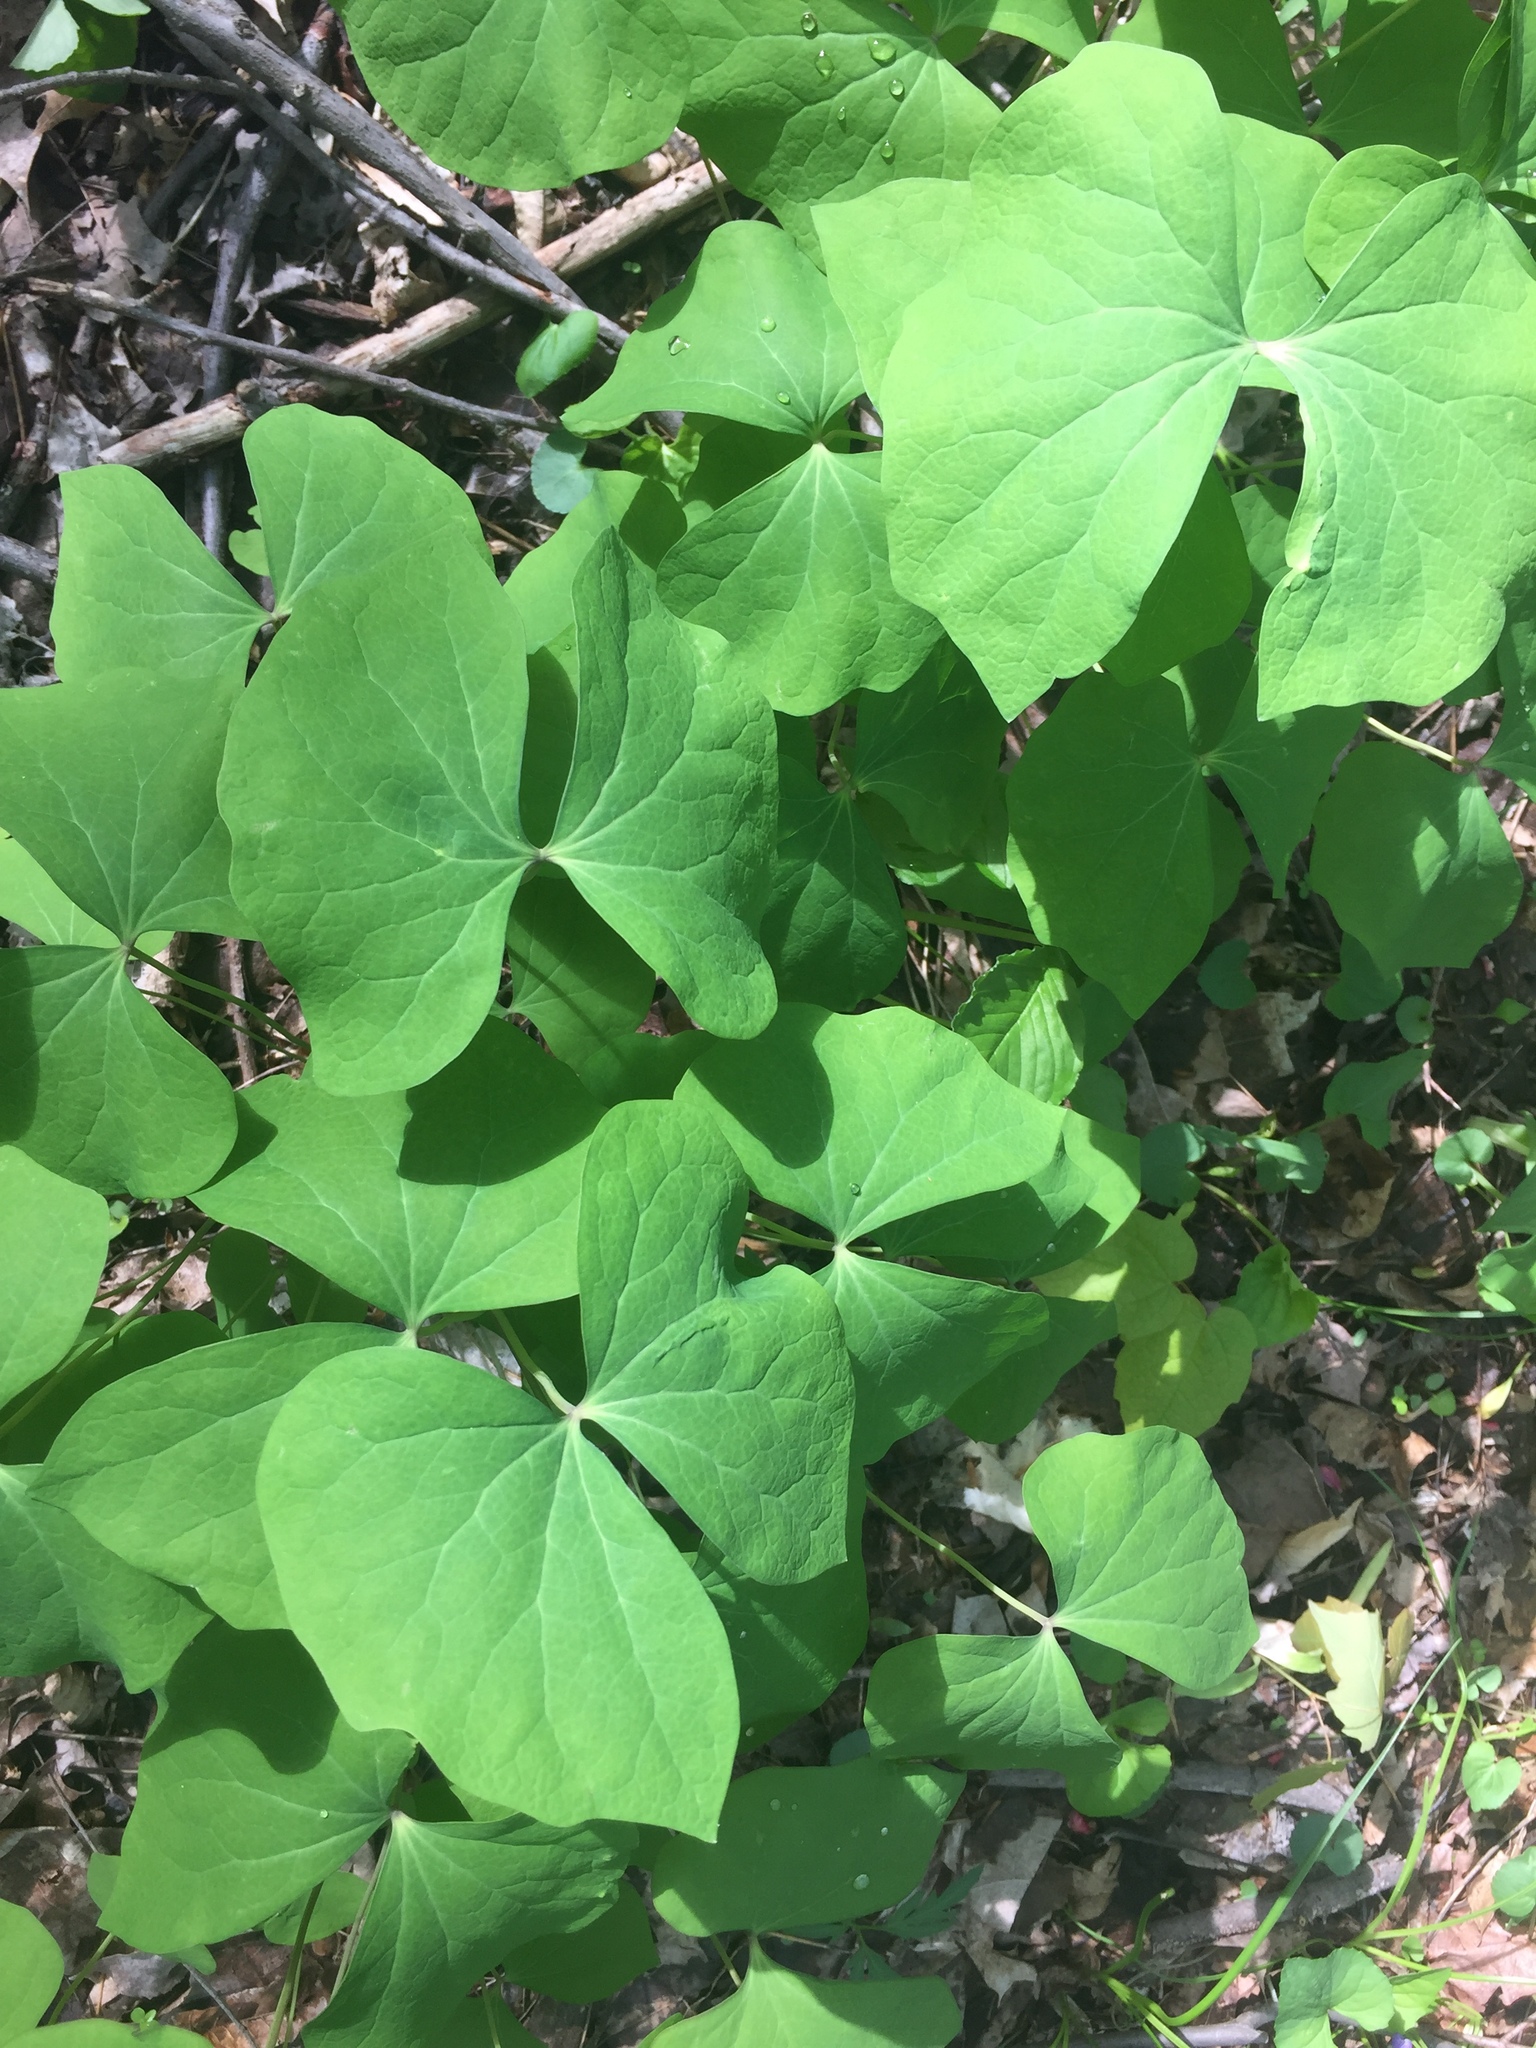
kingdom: Plantae
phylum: Tracheophyta
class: Magnoliopsida
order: Ranunculales
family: Berberidaceae
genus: Jeffersonia
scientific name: Jeffersonia diphylla
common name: Rheumatism-root
